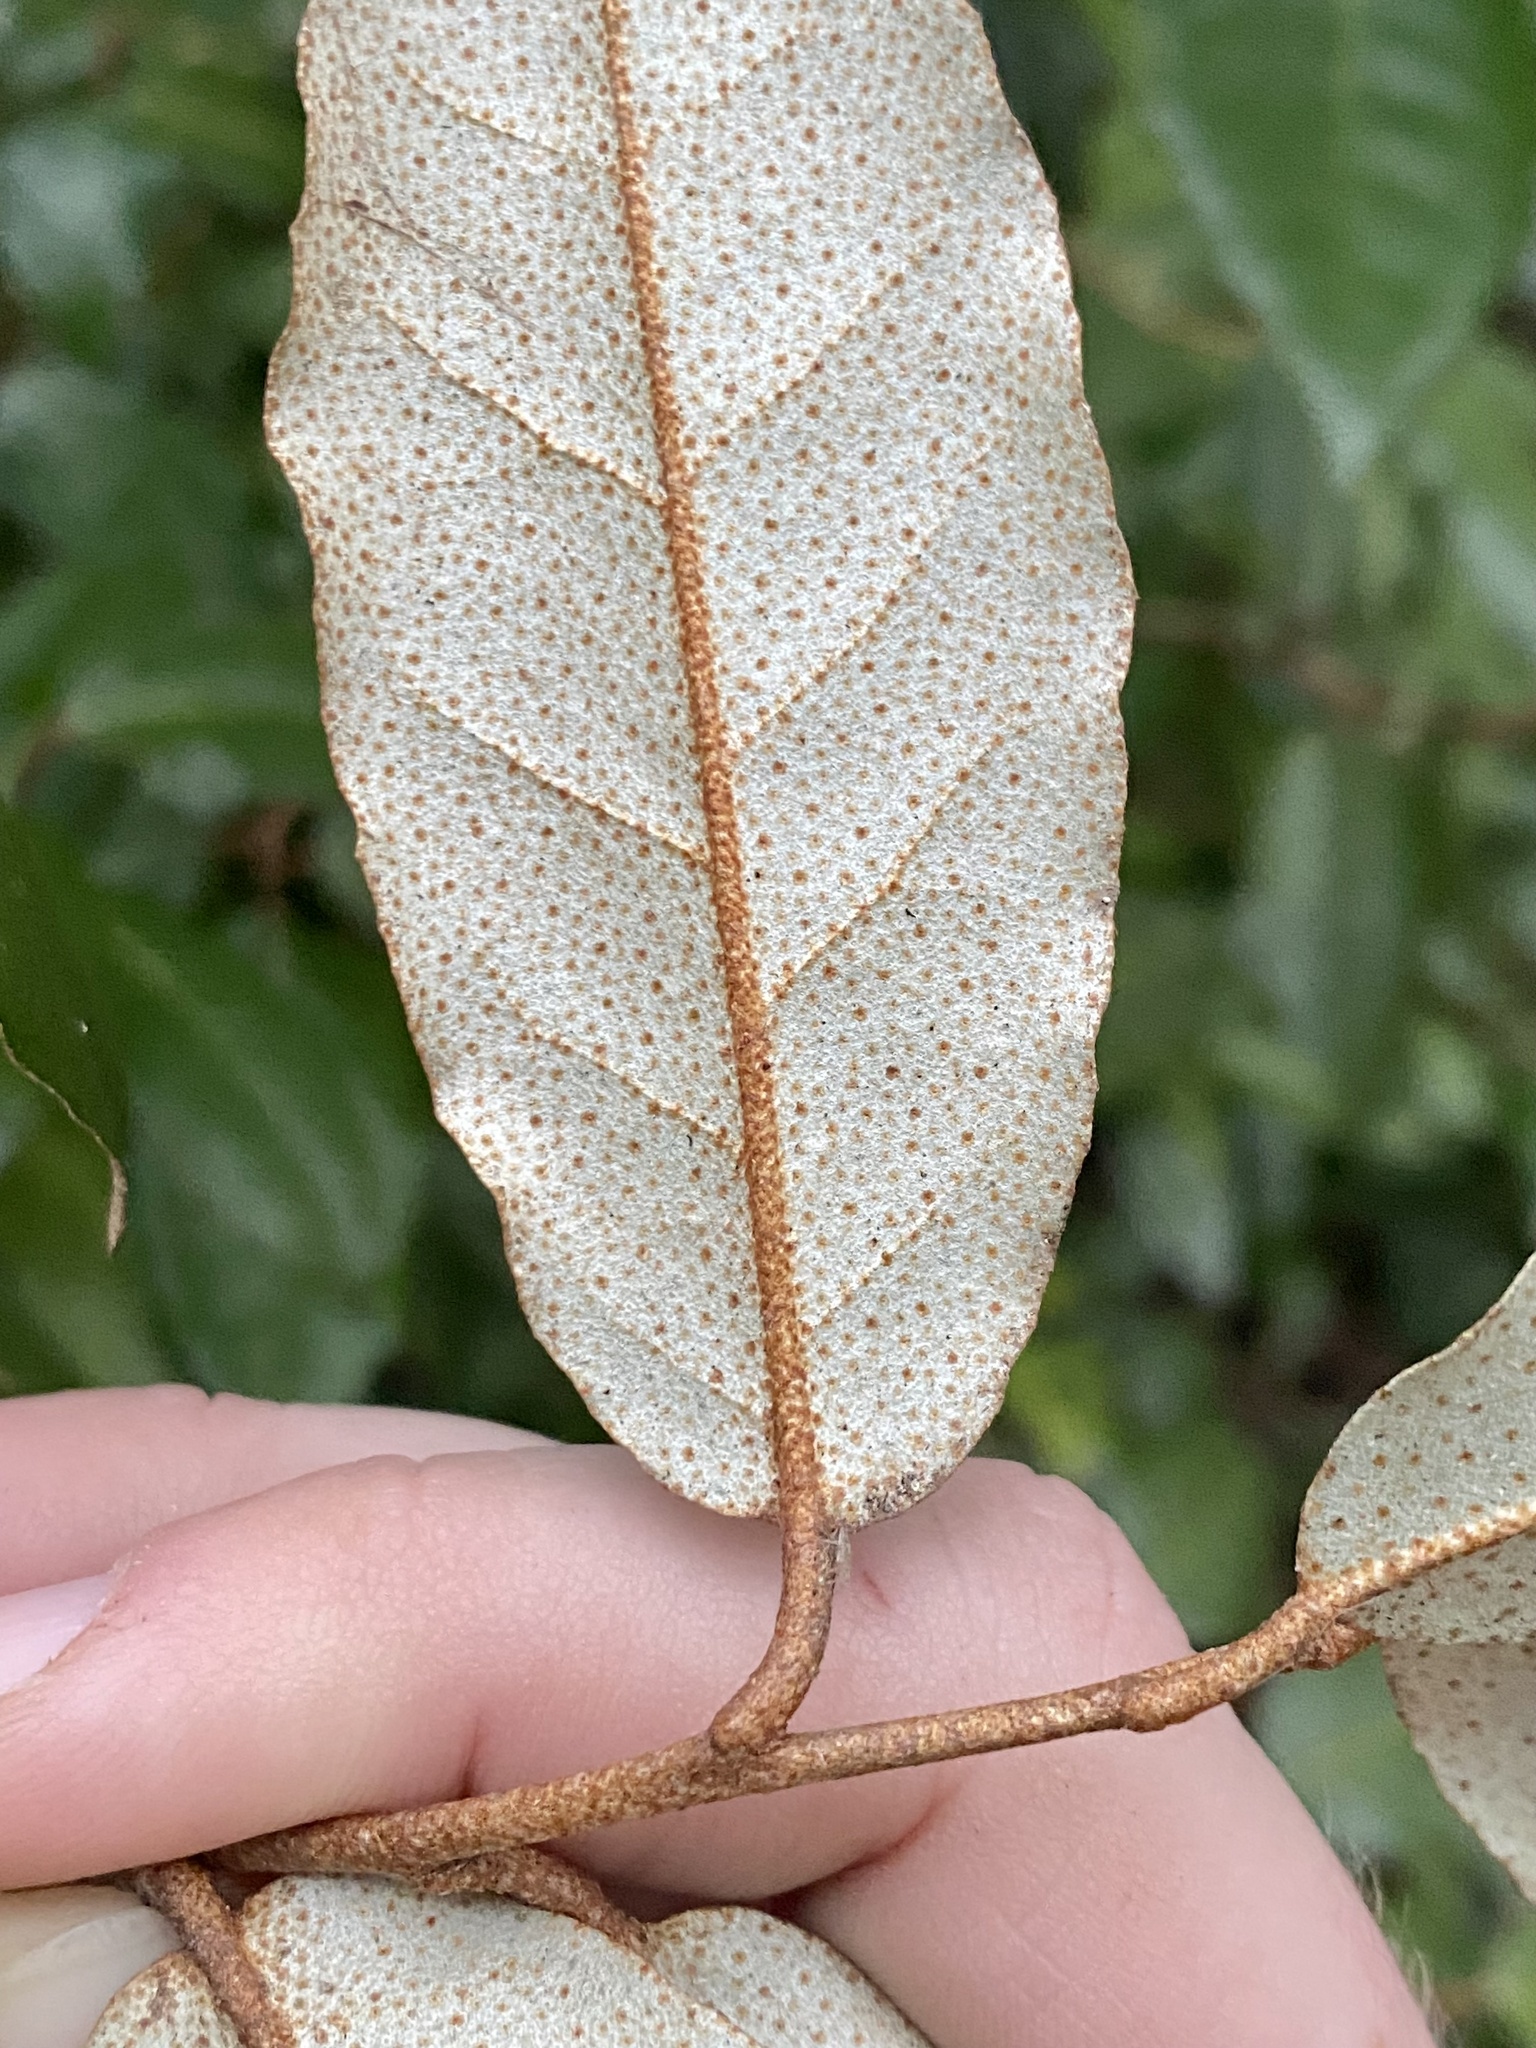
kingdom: Plantae
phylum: Tracheophyta
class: Magnoliopsida
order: Rosales
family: Elaeagnaceae
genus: Elaeagnus
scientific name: Elaeagnus pungens
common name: Spiny oleaster
